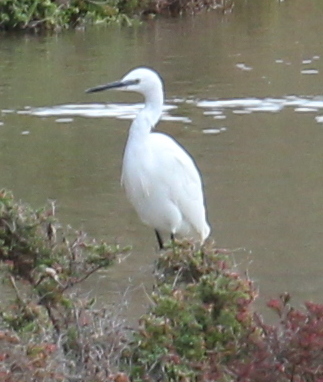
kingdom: Animalia
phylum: Chordata
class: Aves
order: Pelecaniformes
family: Ardeidae
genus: Egretta
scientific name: Egretta garzetta
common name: Little egret
